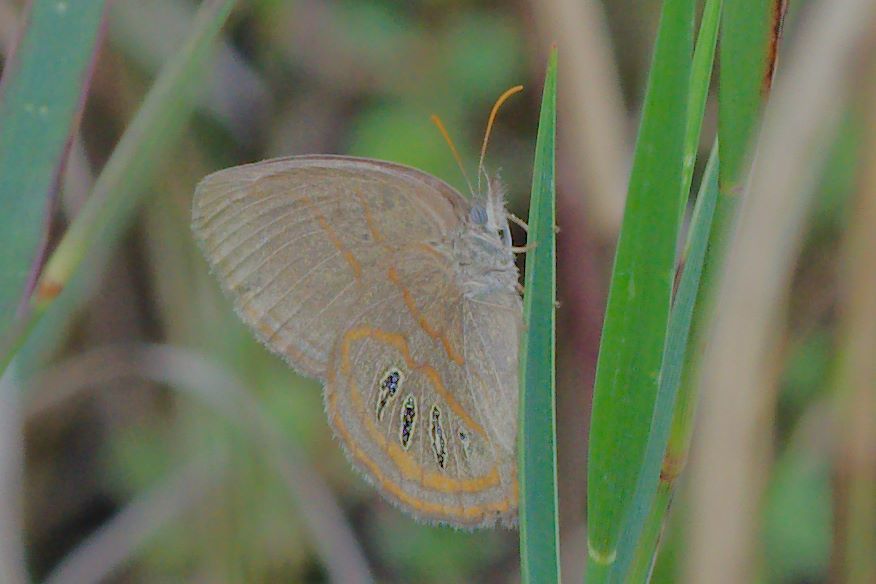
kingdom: Animalia
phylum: Arthropoda
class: Insecta
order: Lepidoptera
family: Nymphalidae
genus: Euptychia
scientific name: Euptychia phocion
